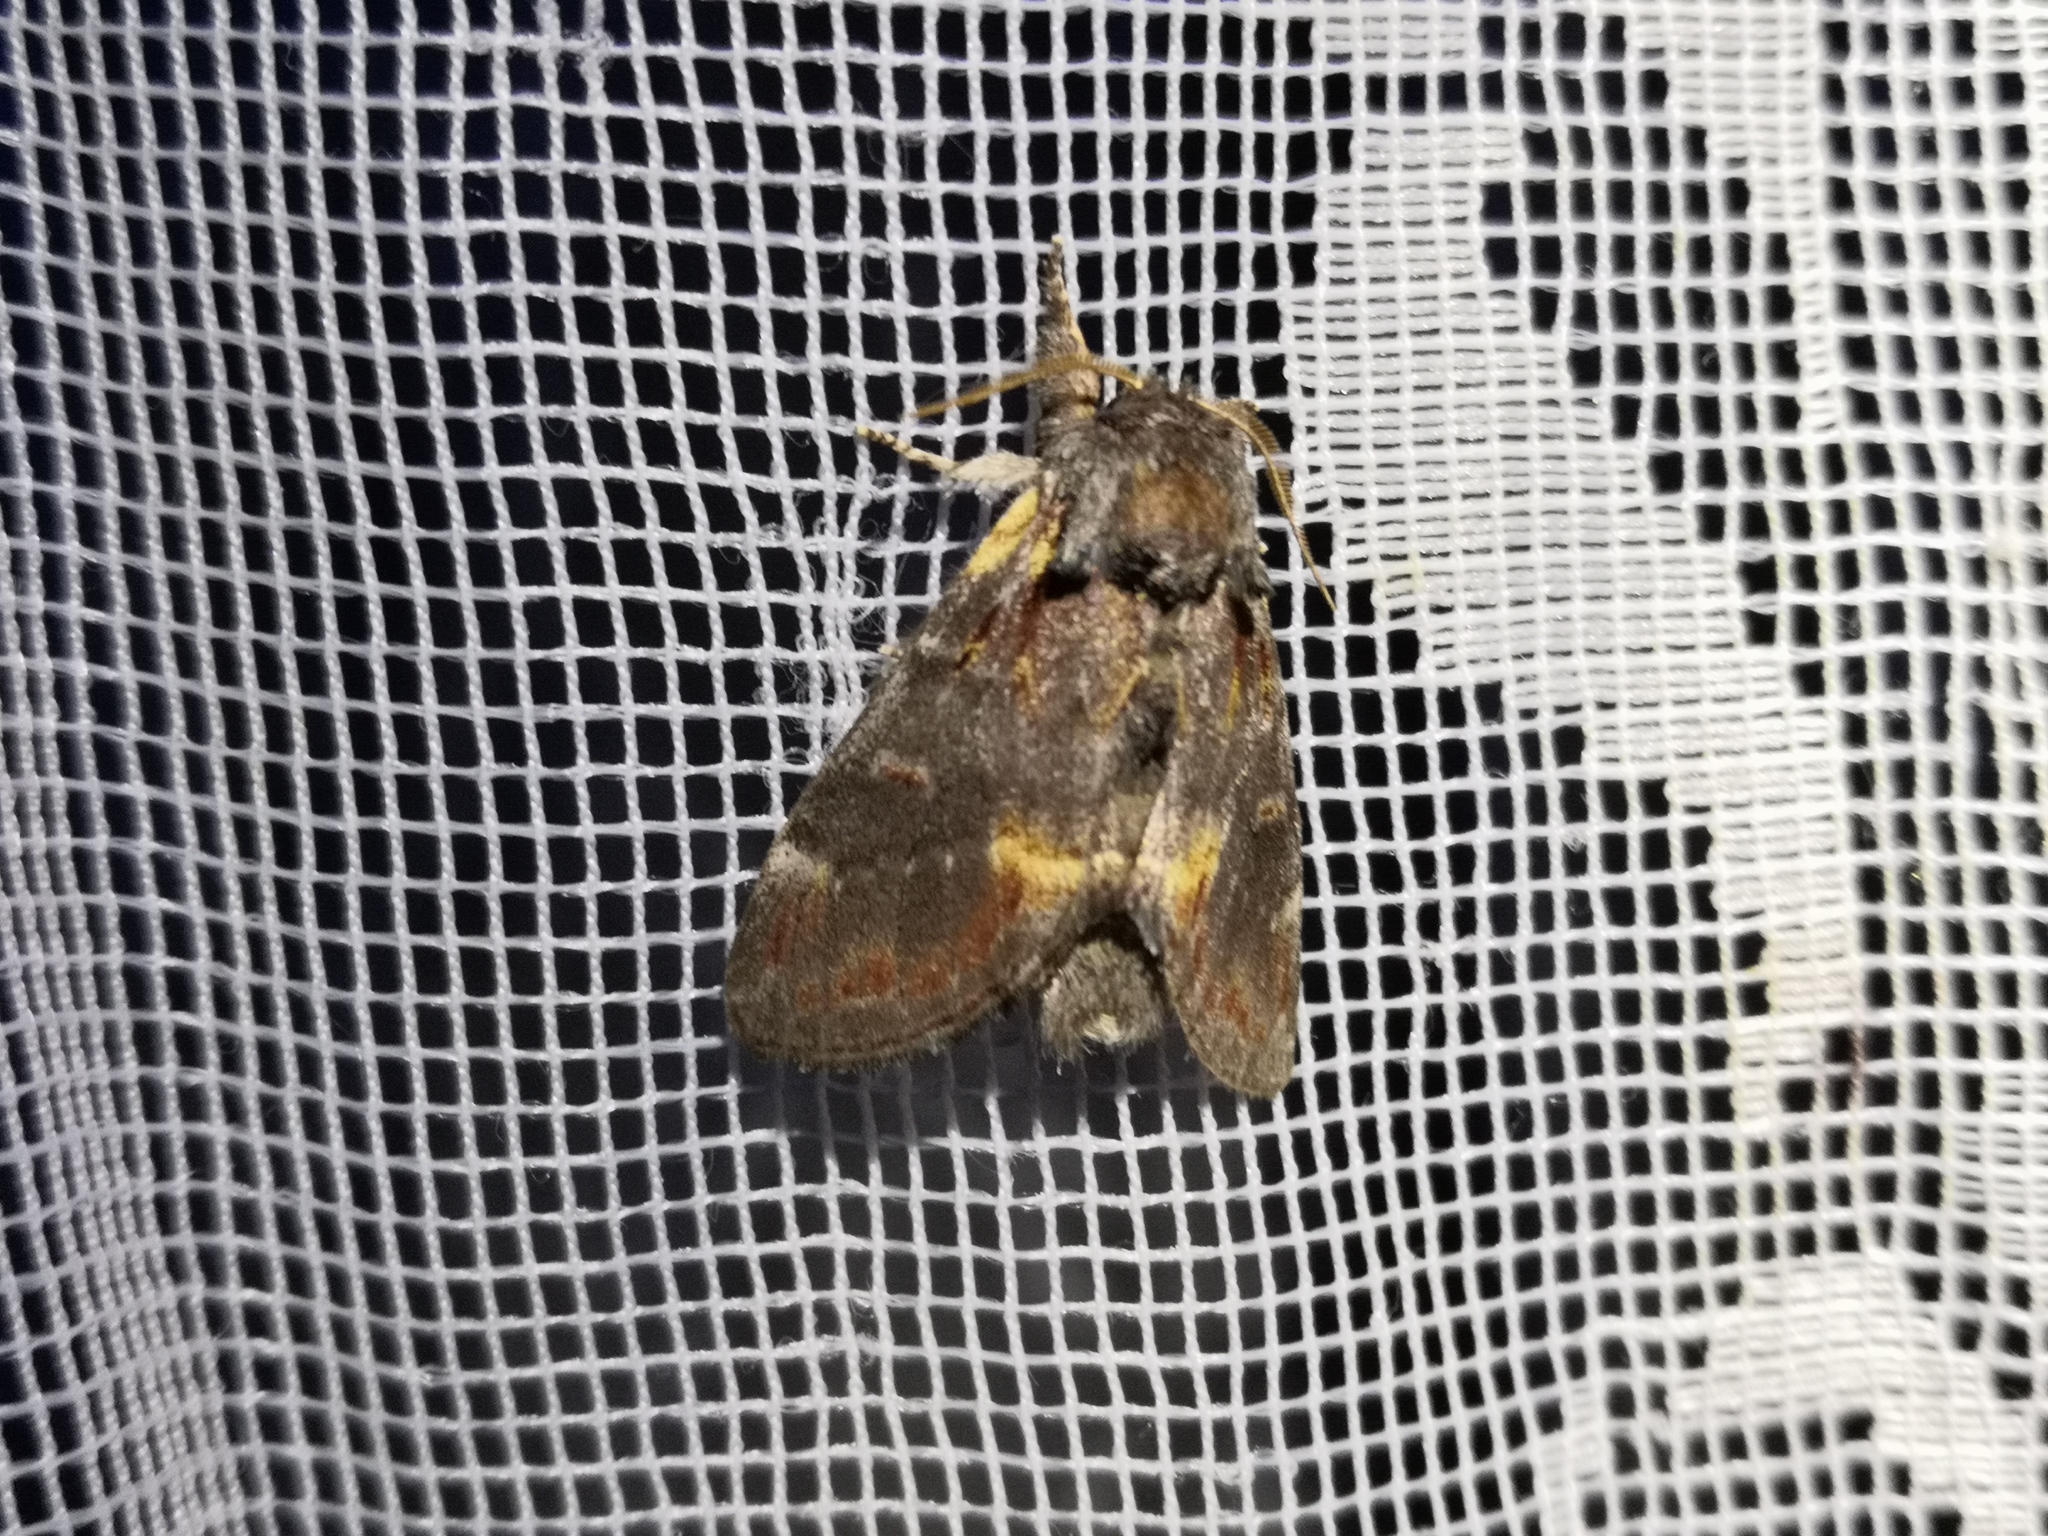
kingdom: Animalia
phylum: Arthropoda
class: Insecta
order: Lepidoptera
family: Notodontidae
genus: Notodonta
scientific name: Notodonta dromedarius
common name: Iron prominent
